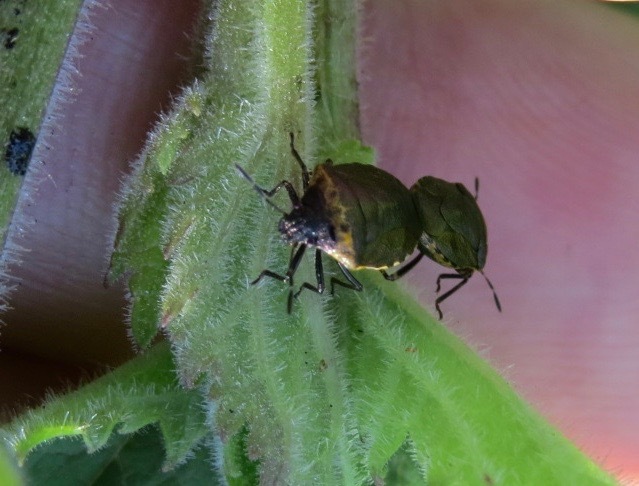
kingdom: Animalia
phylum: Arthropoda
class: Insecta
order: Hemiptera
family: Pentatomidae
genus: Cosmopepla
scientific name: Cosmopepla uhleri
